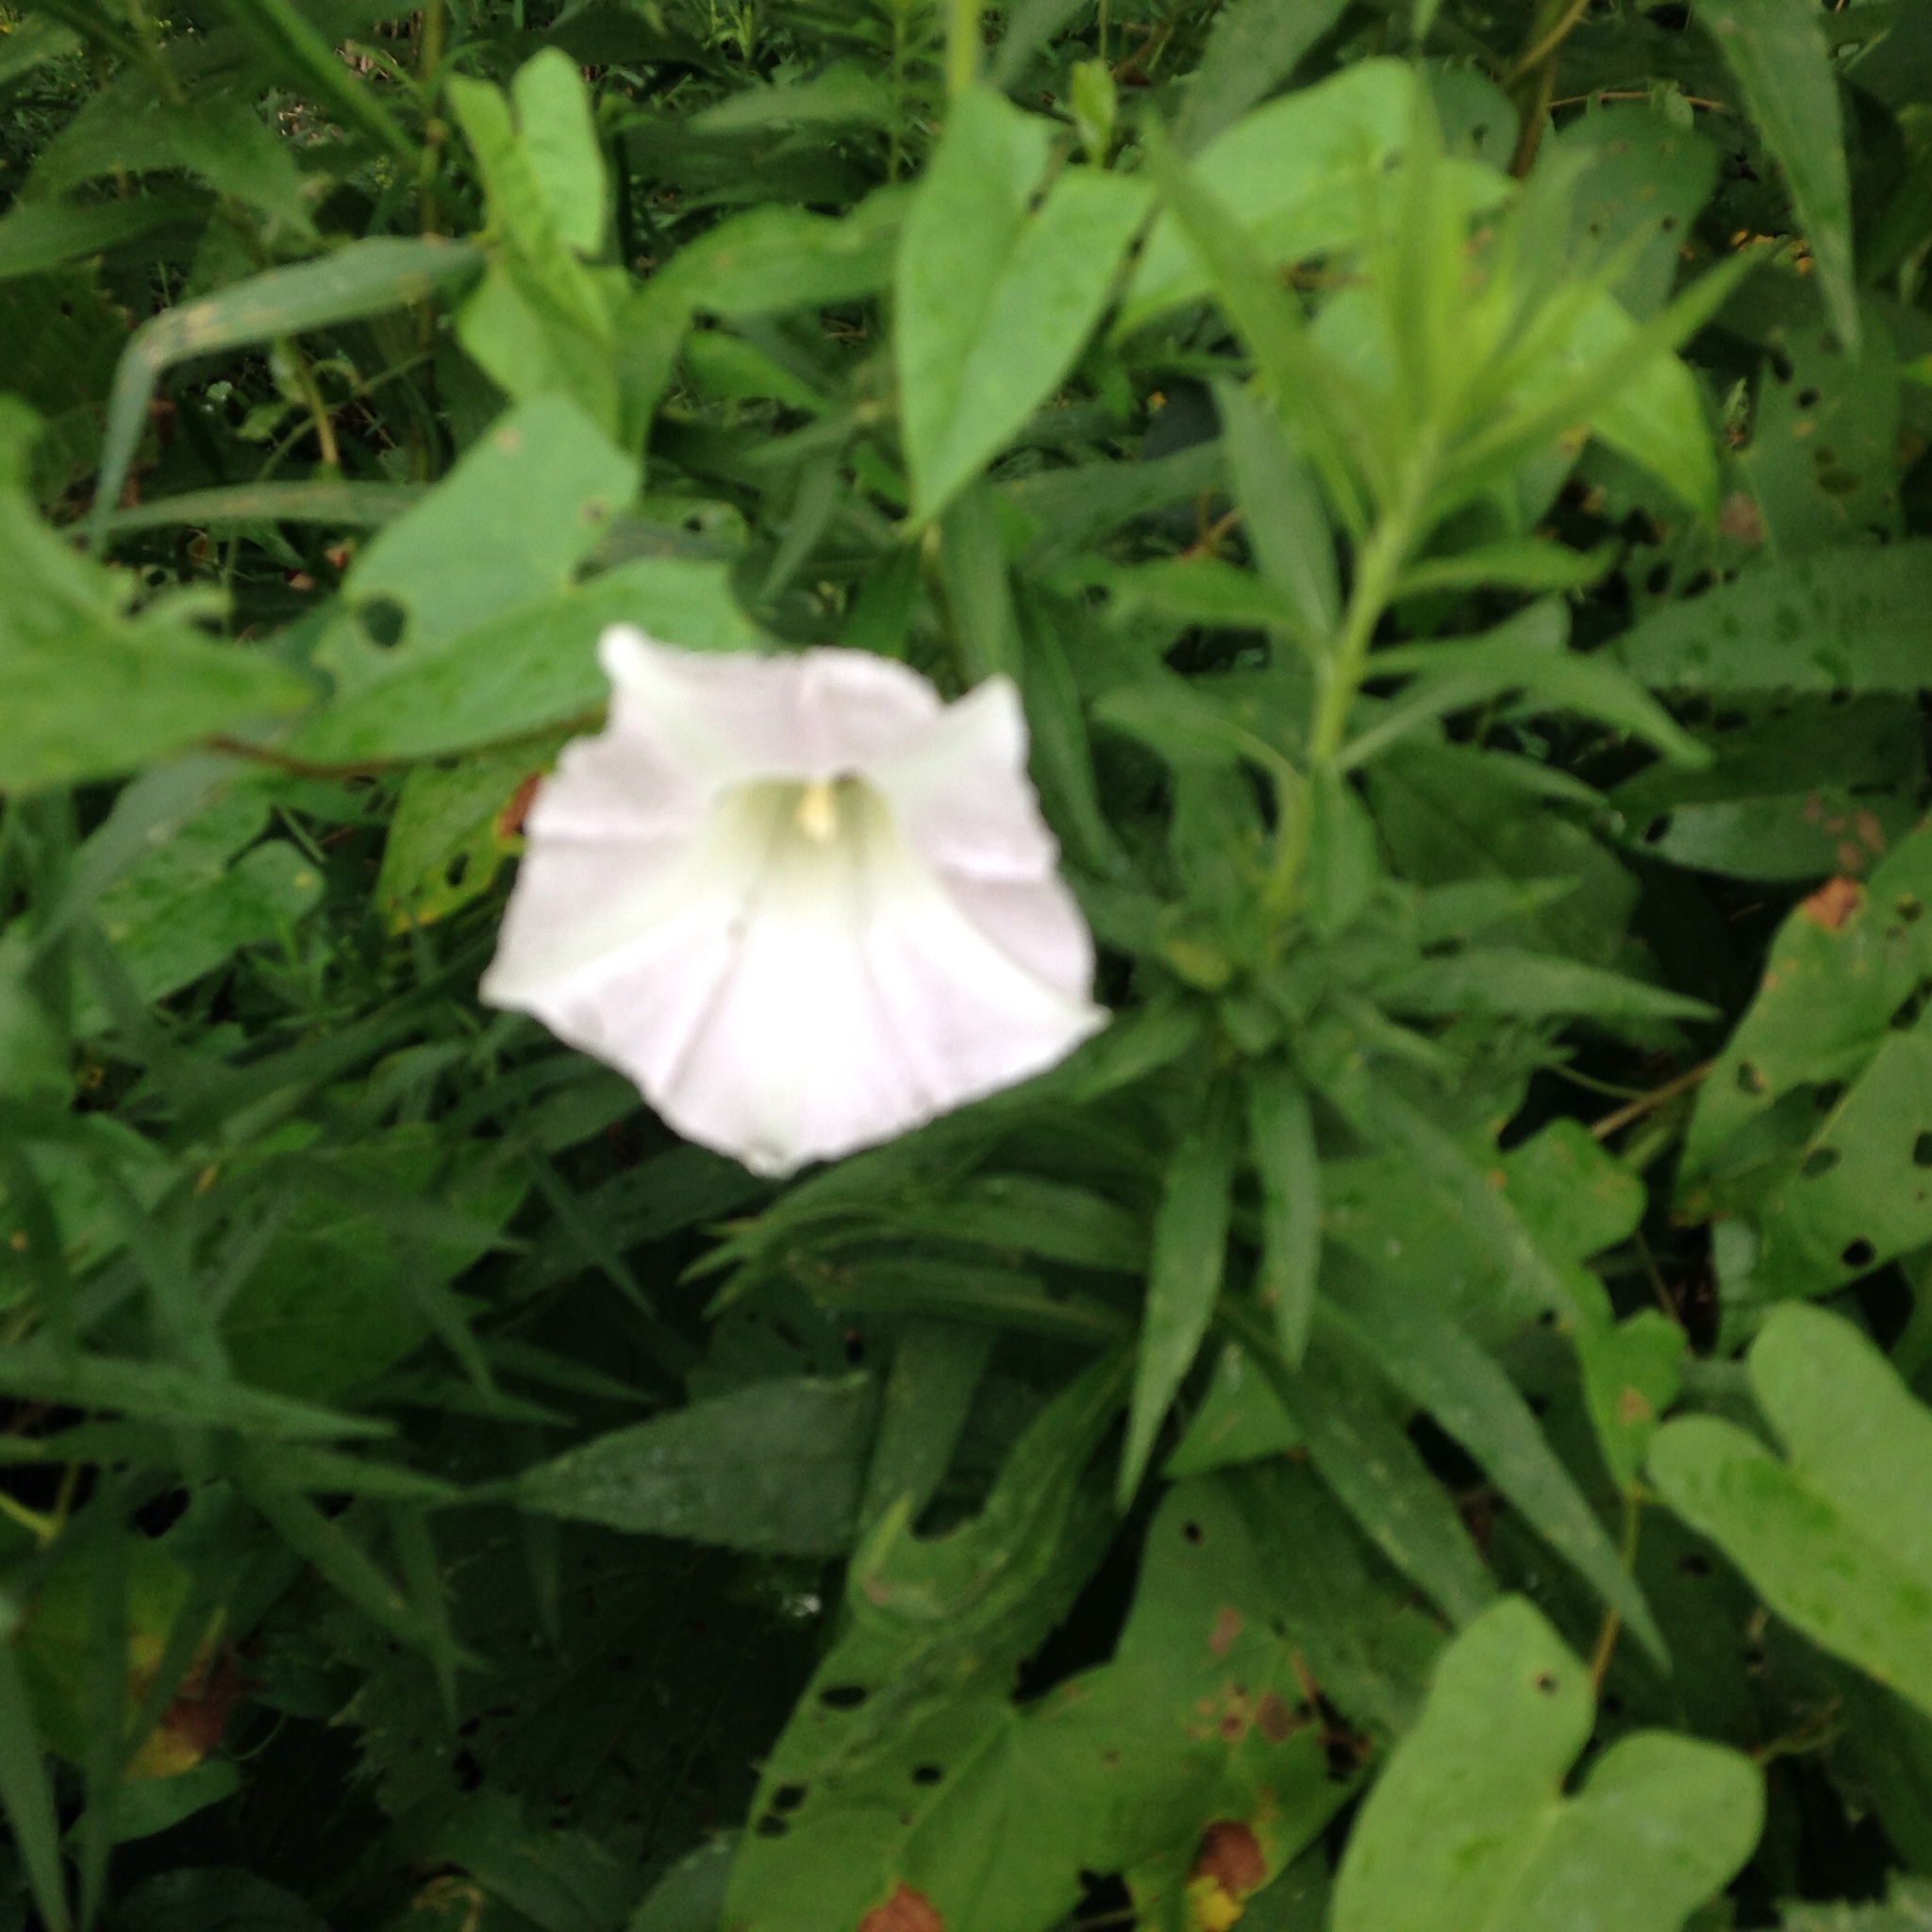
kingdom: Plantae
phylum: Tracheophyta
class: Magnoliopsida
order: Solanales
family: Convolvulaceae
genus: Calystegia
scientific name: Calystegia sepium
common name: Hedge bindweed
